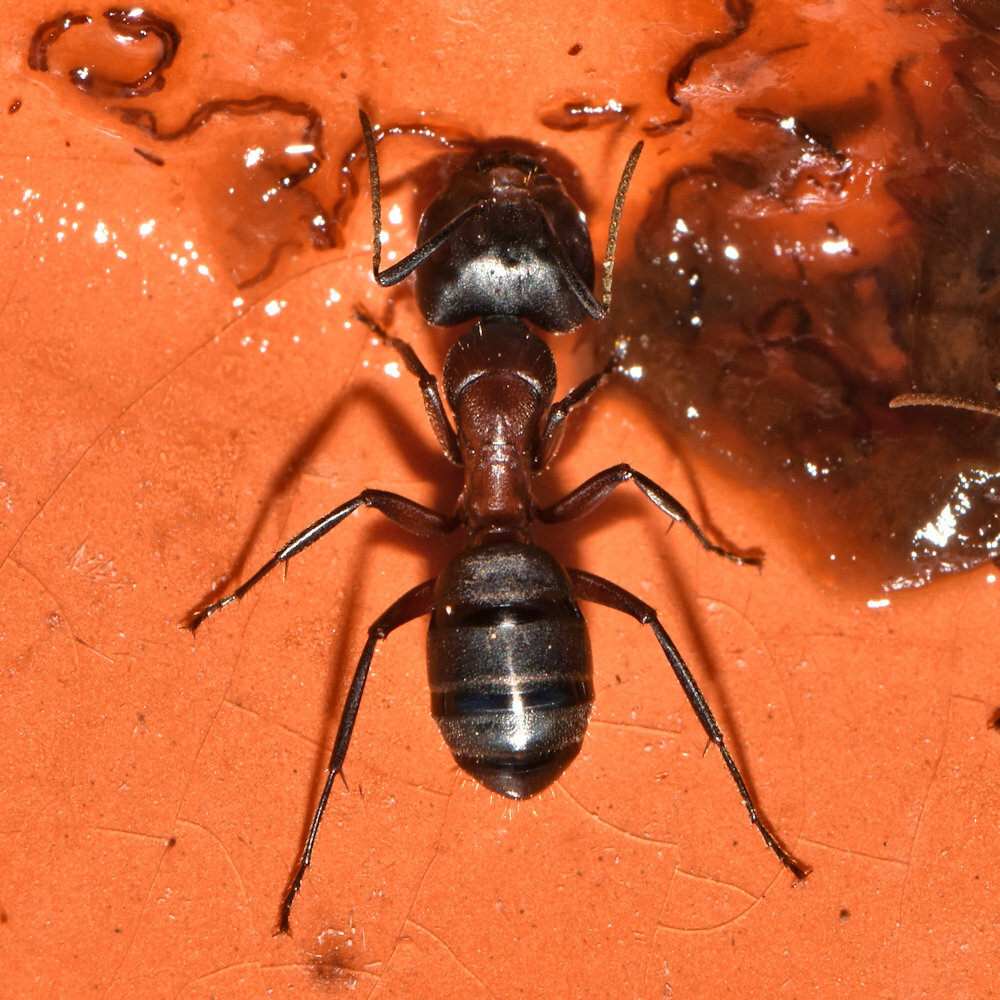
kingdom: Animalia
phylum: Arthropoda
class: Insecta
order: Hymenoptera
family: Formicidae
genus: Camponotus
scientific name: Camponotus novaeboracensis
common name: New york carpenter ant
